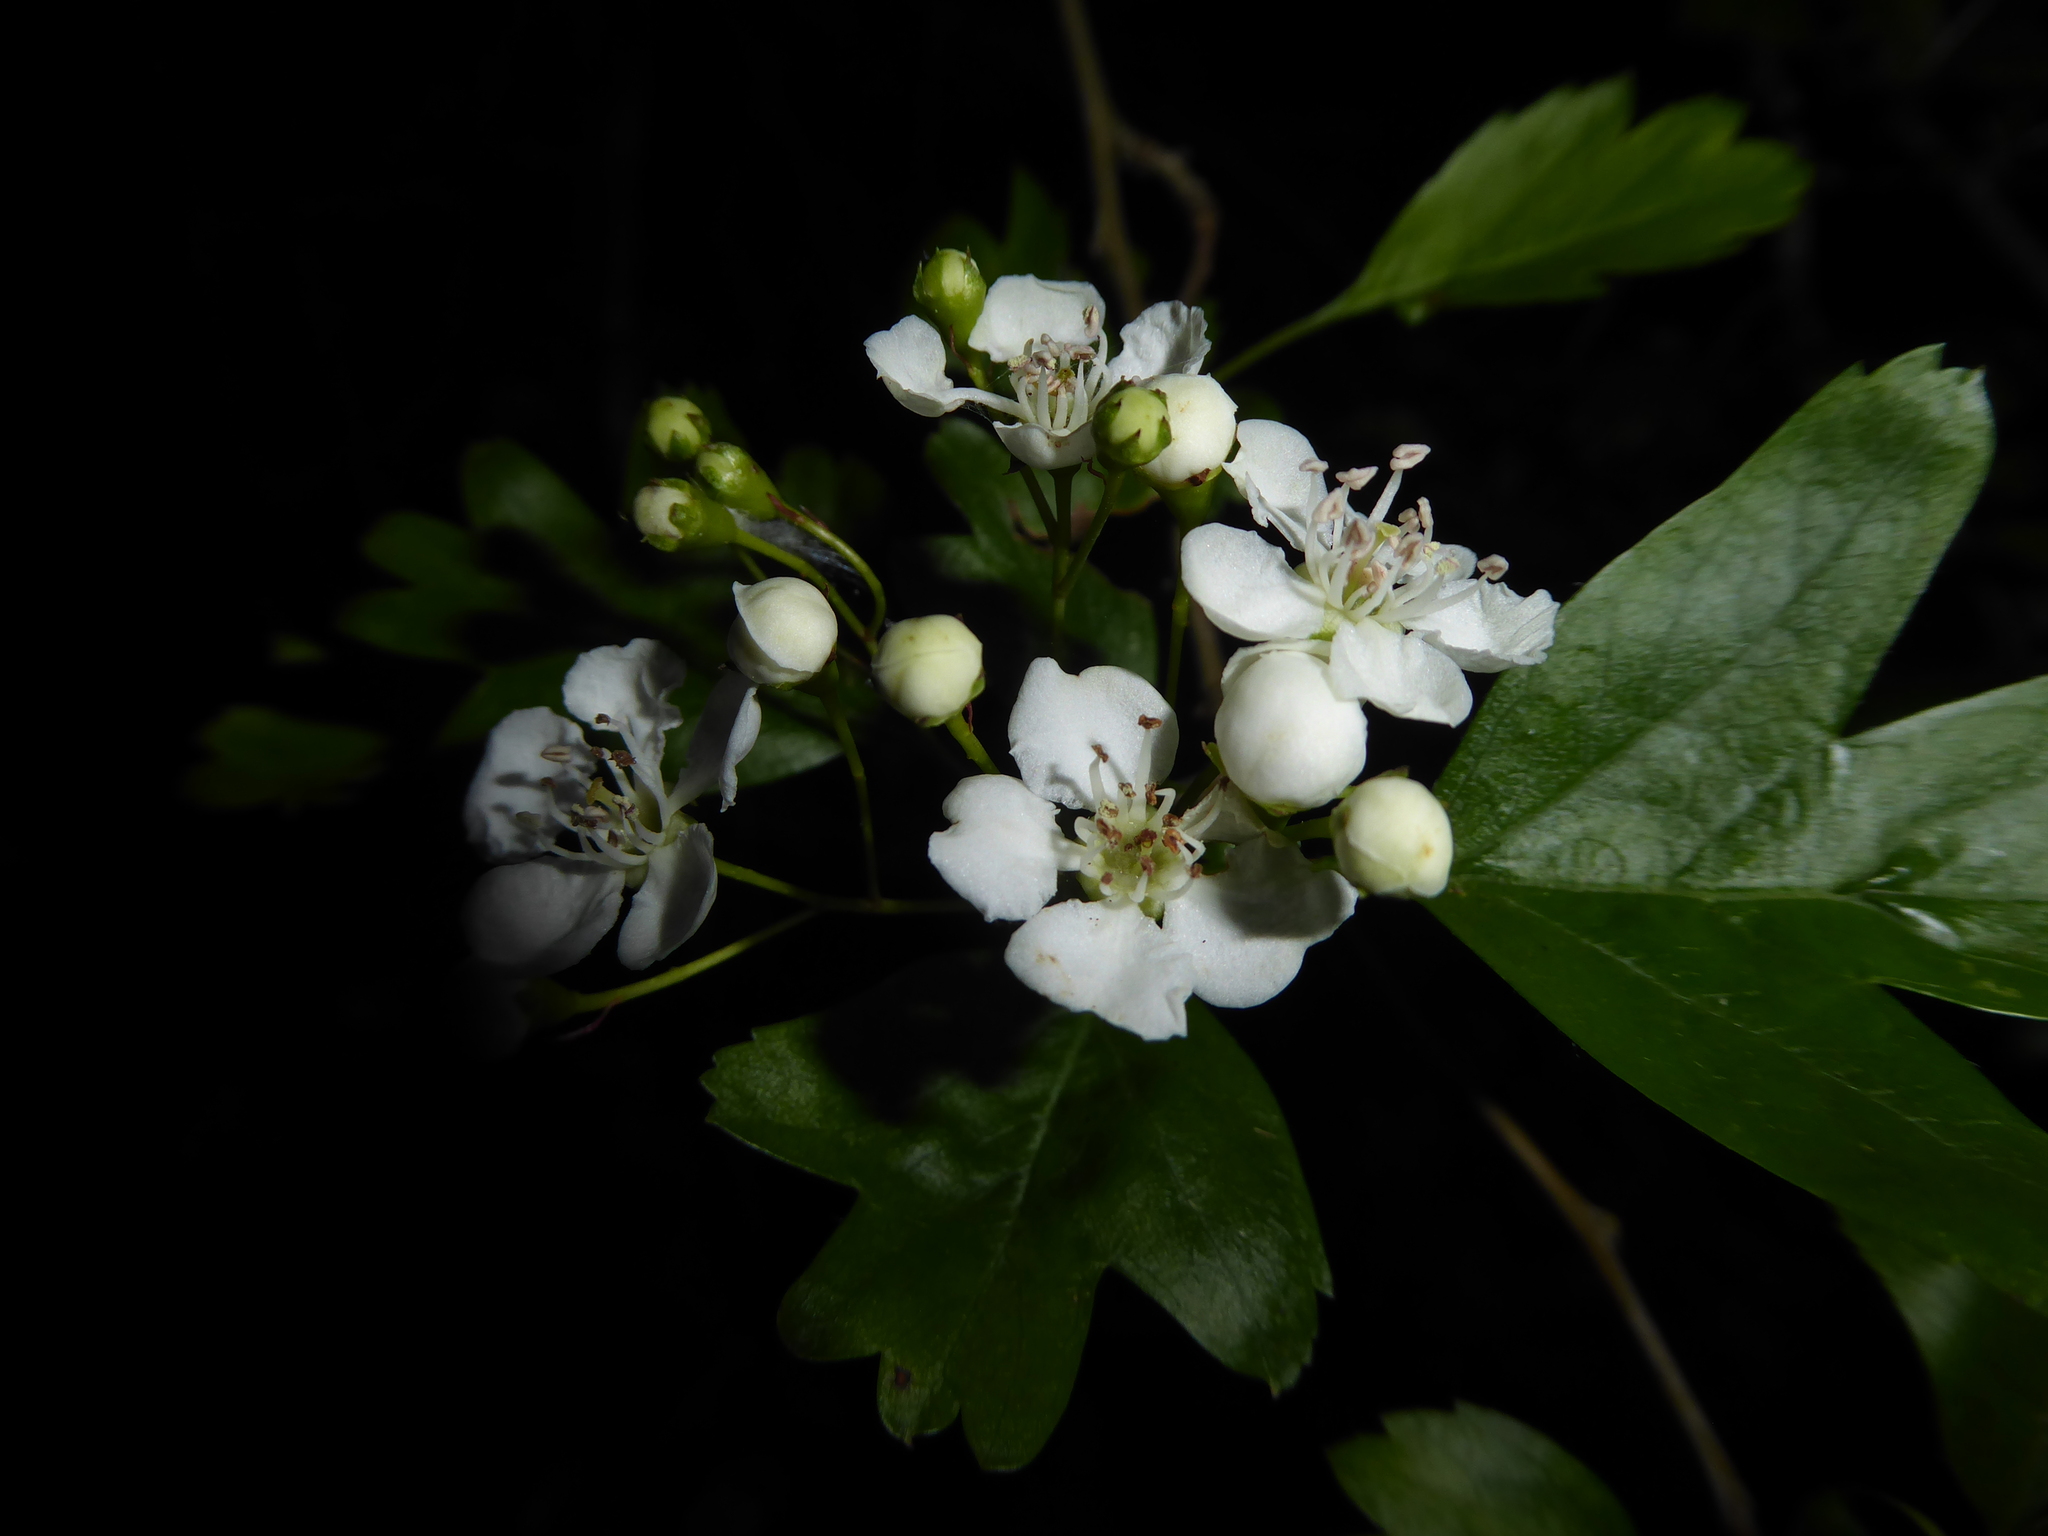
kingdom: Plantae
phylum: Tracheophyta
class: Magnoliopsida
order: Rosales
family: Rosaceae
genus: Crataegus
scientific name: Crataegus monogyna
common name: Hawthorn
